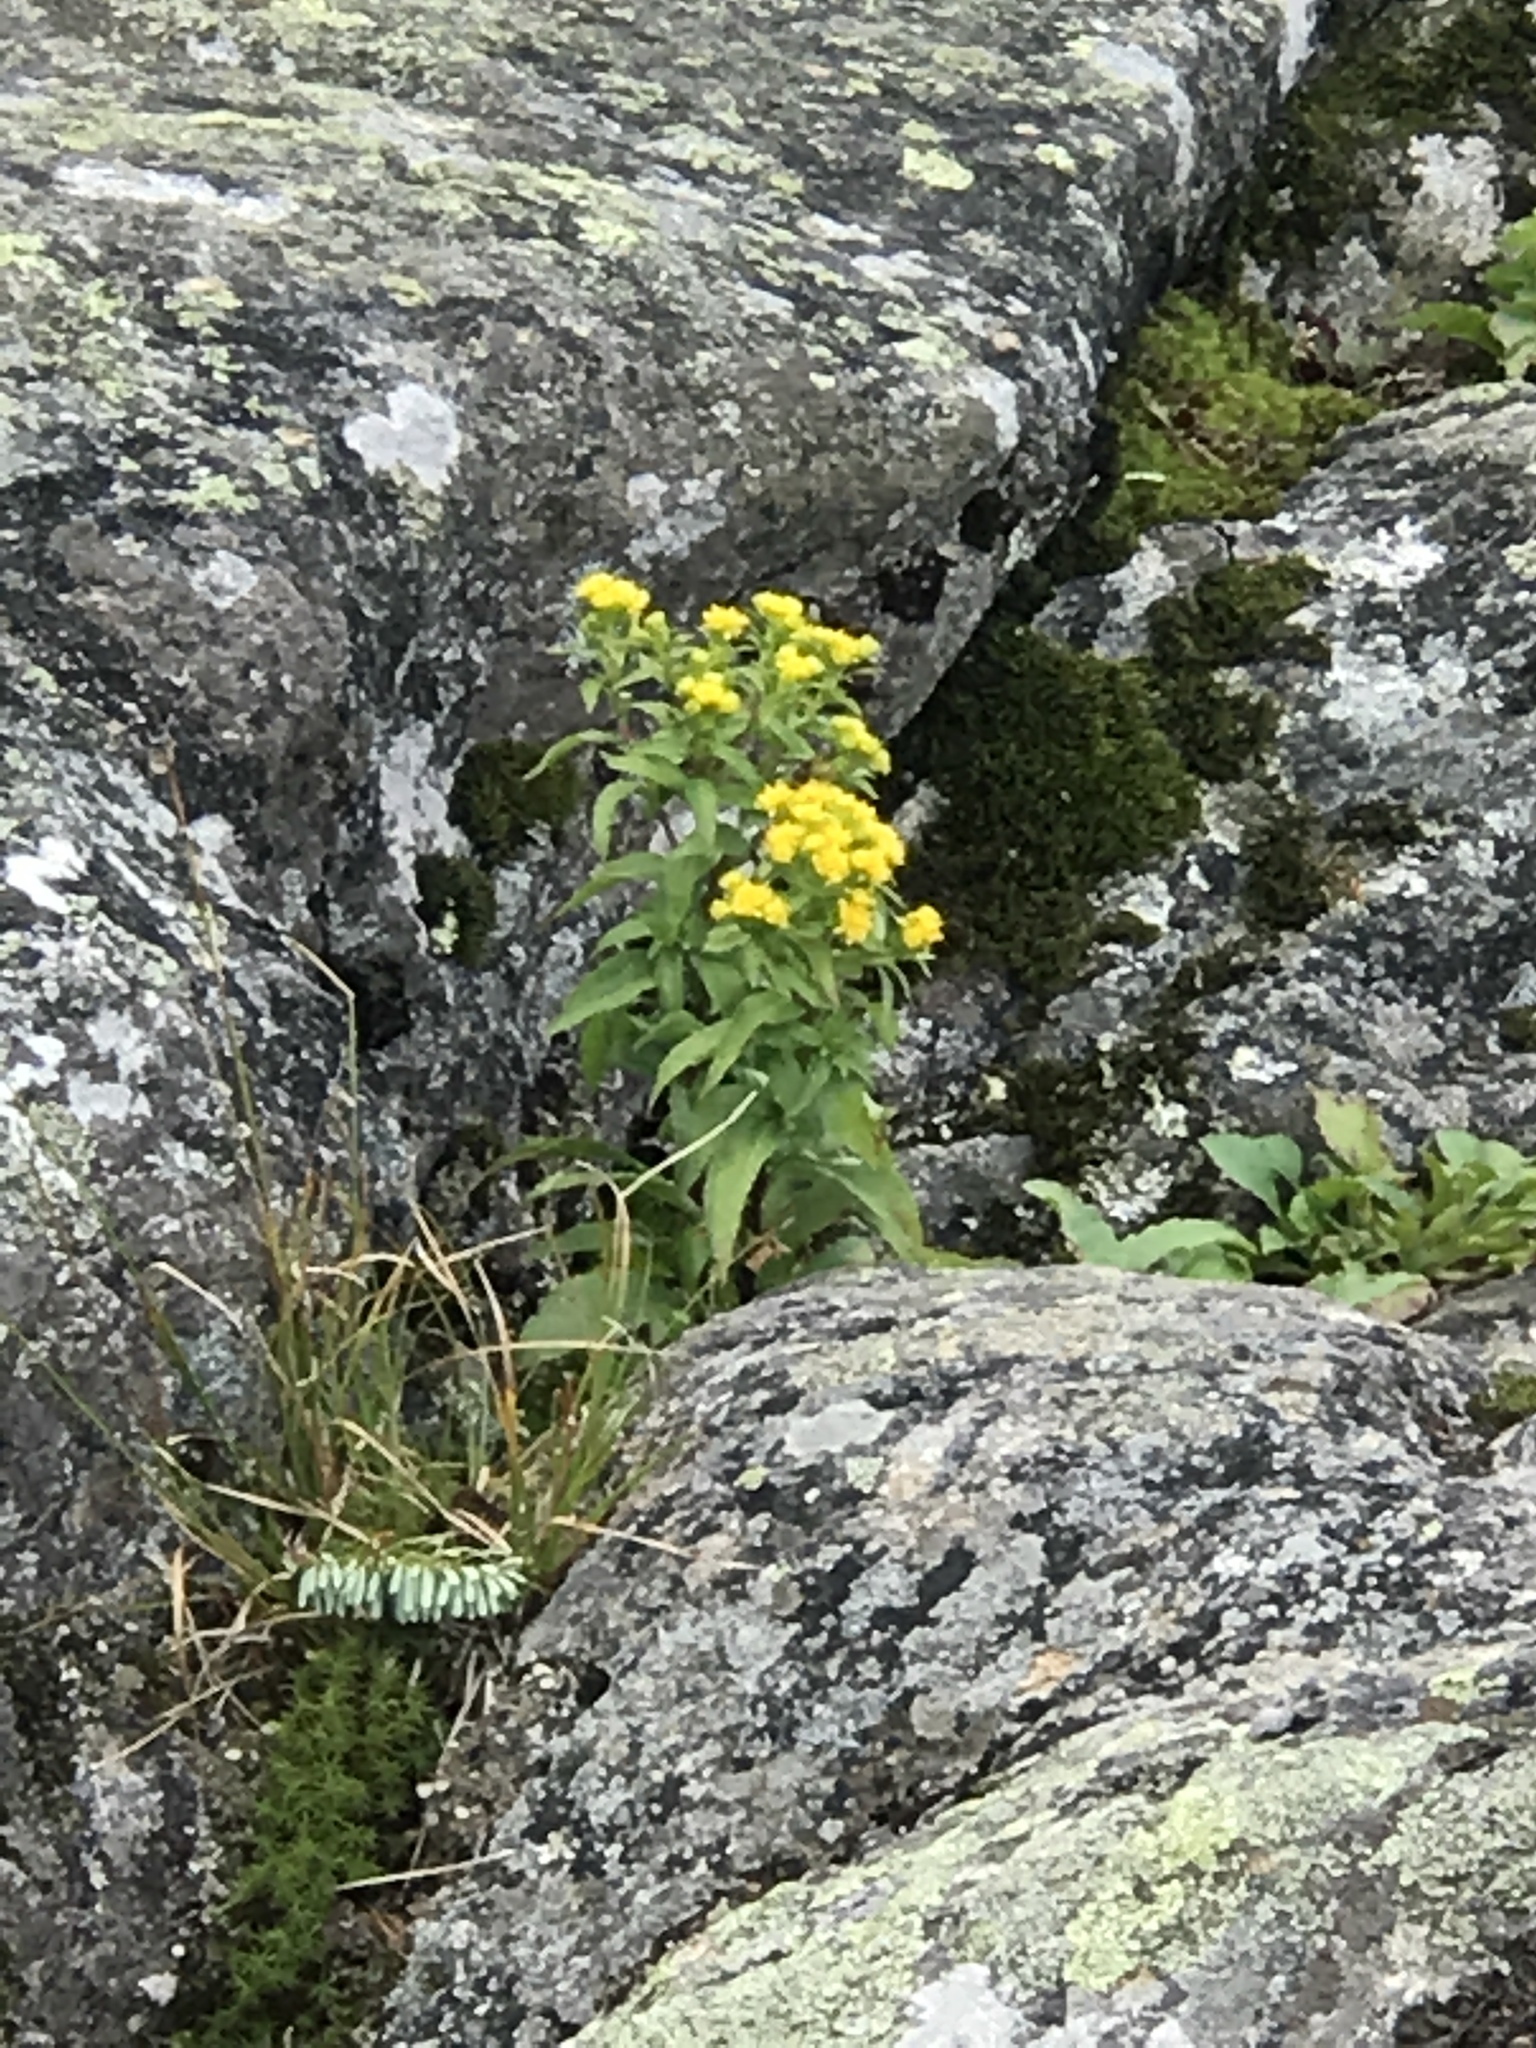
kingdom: Plantae
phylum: Tracheophyta
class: Magnoliopsida
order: Asterales
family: Asteraceae
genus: Solidago
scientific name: Solidago spithamaea
